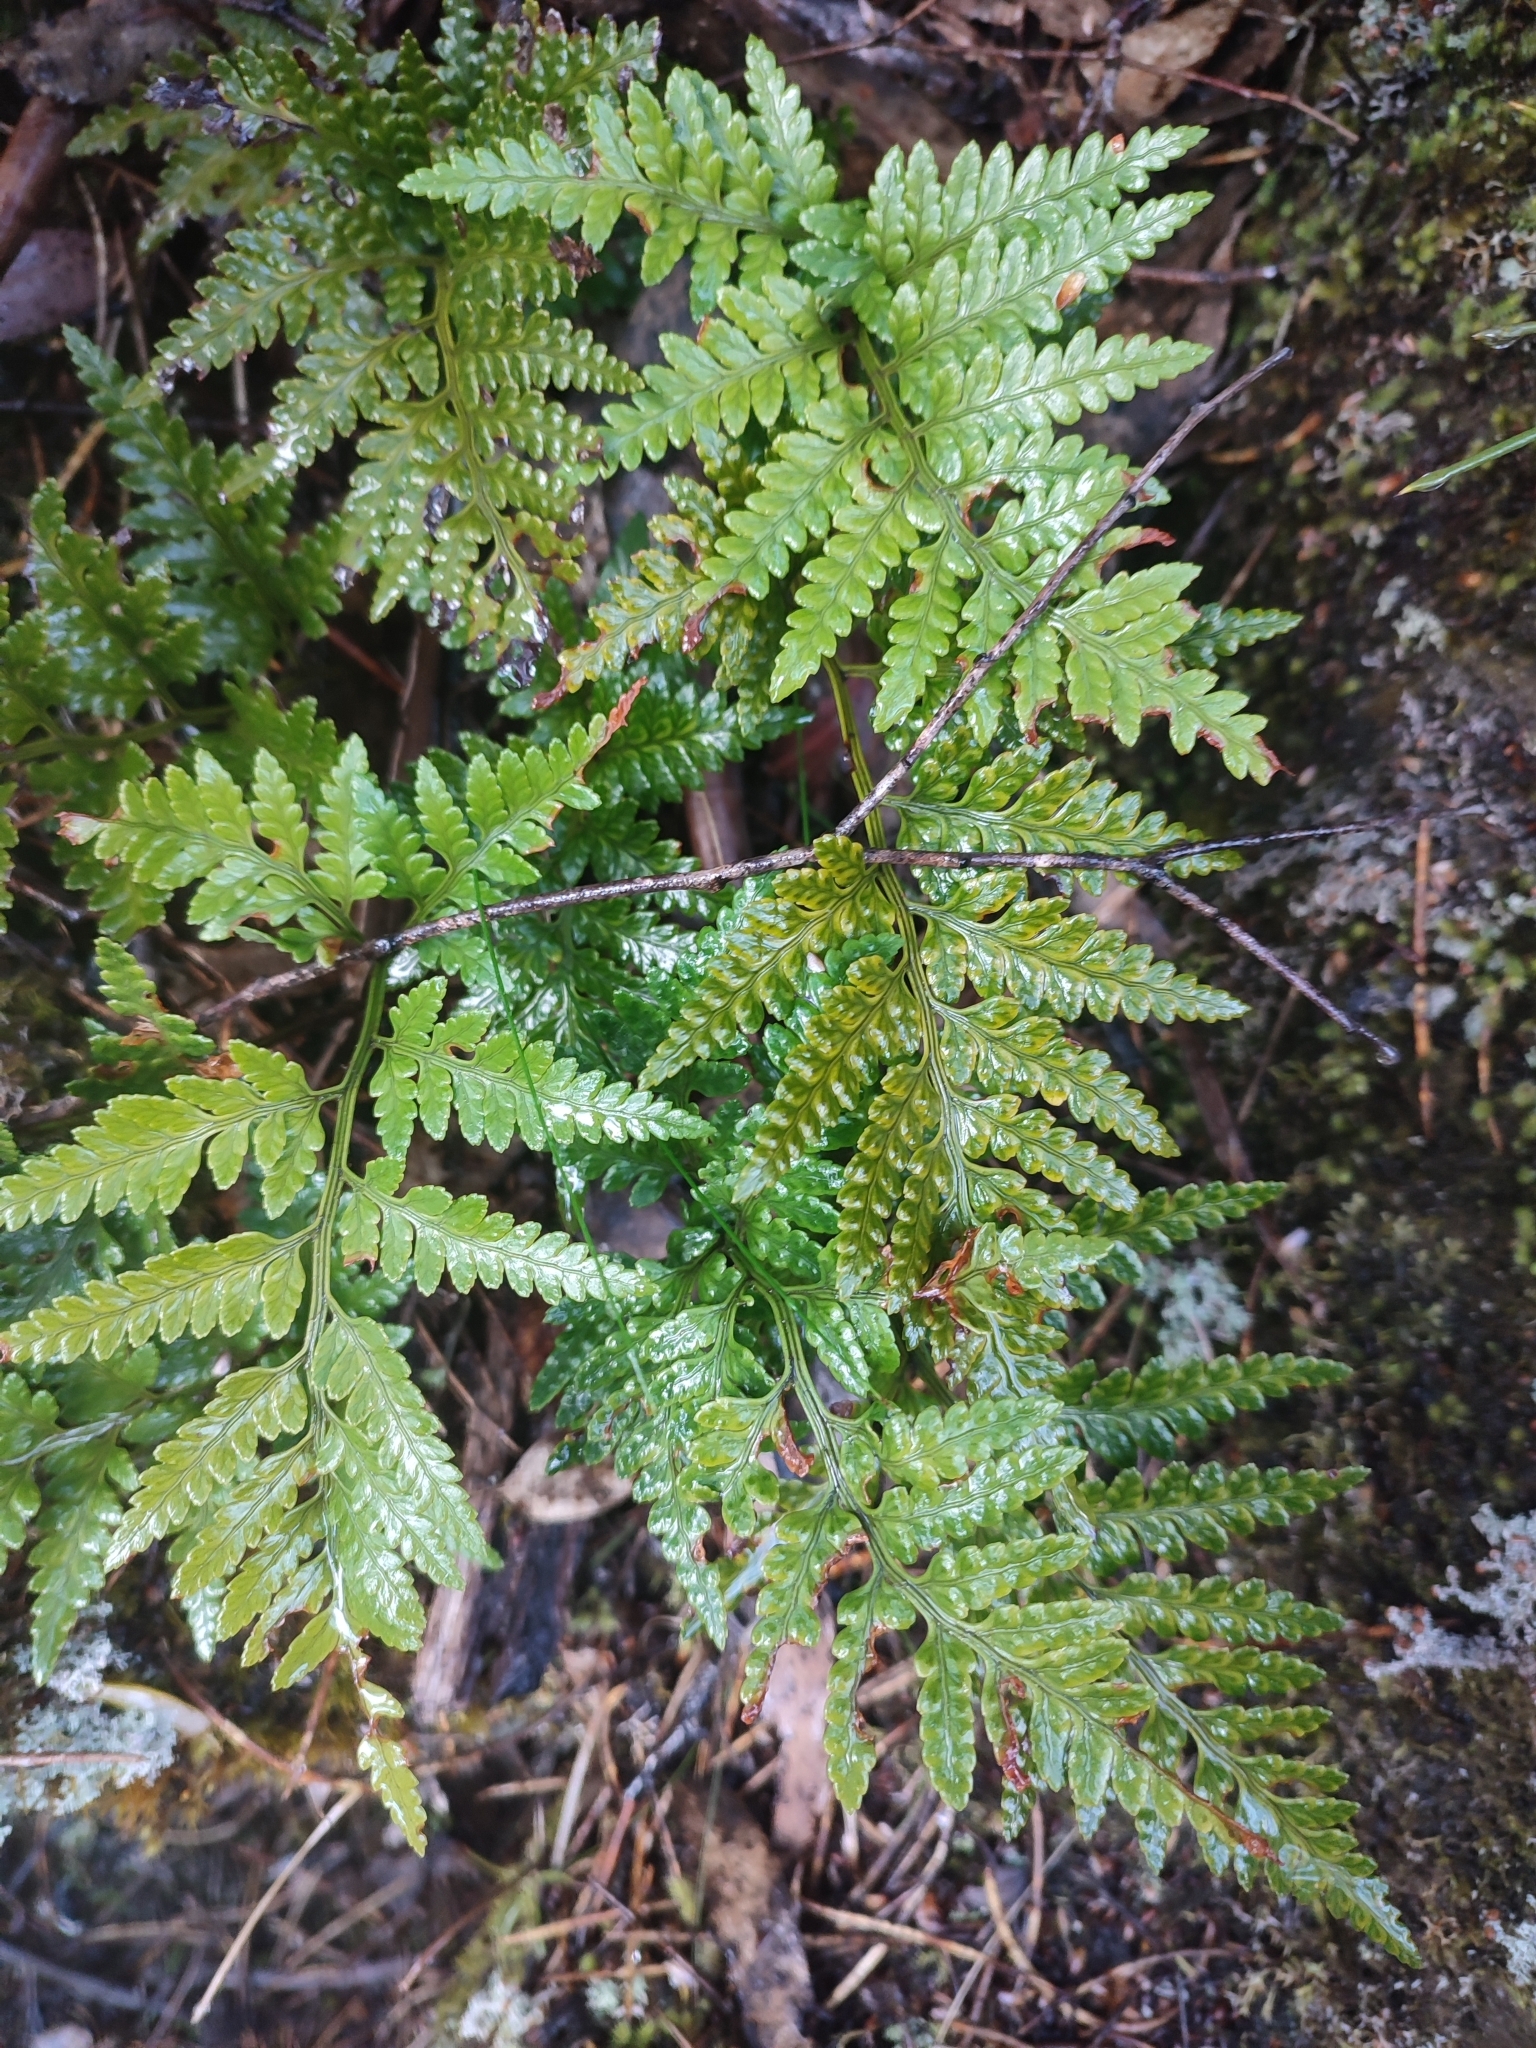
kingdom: Plantae
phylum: Tracheophyta
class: Polypodiopsida
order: Polypodiales
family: Dryopteridaceae
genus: Rumohra
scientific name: Rumohra adiantiformis
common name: Leather fern
